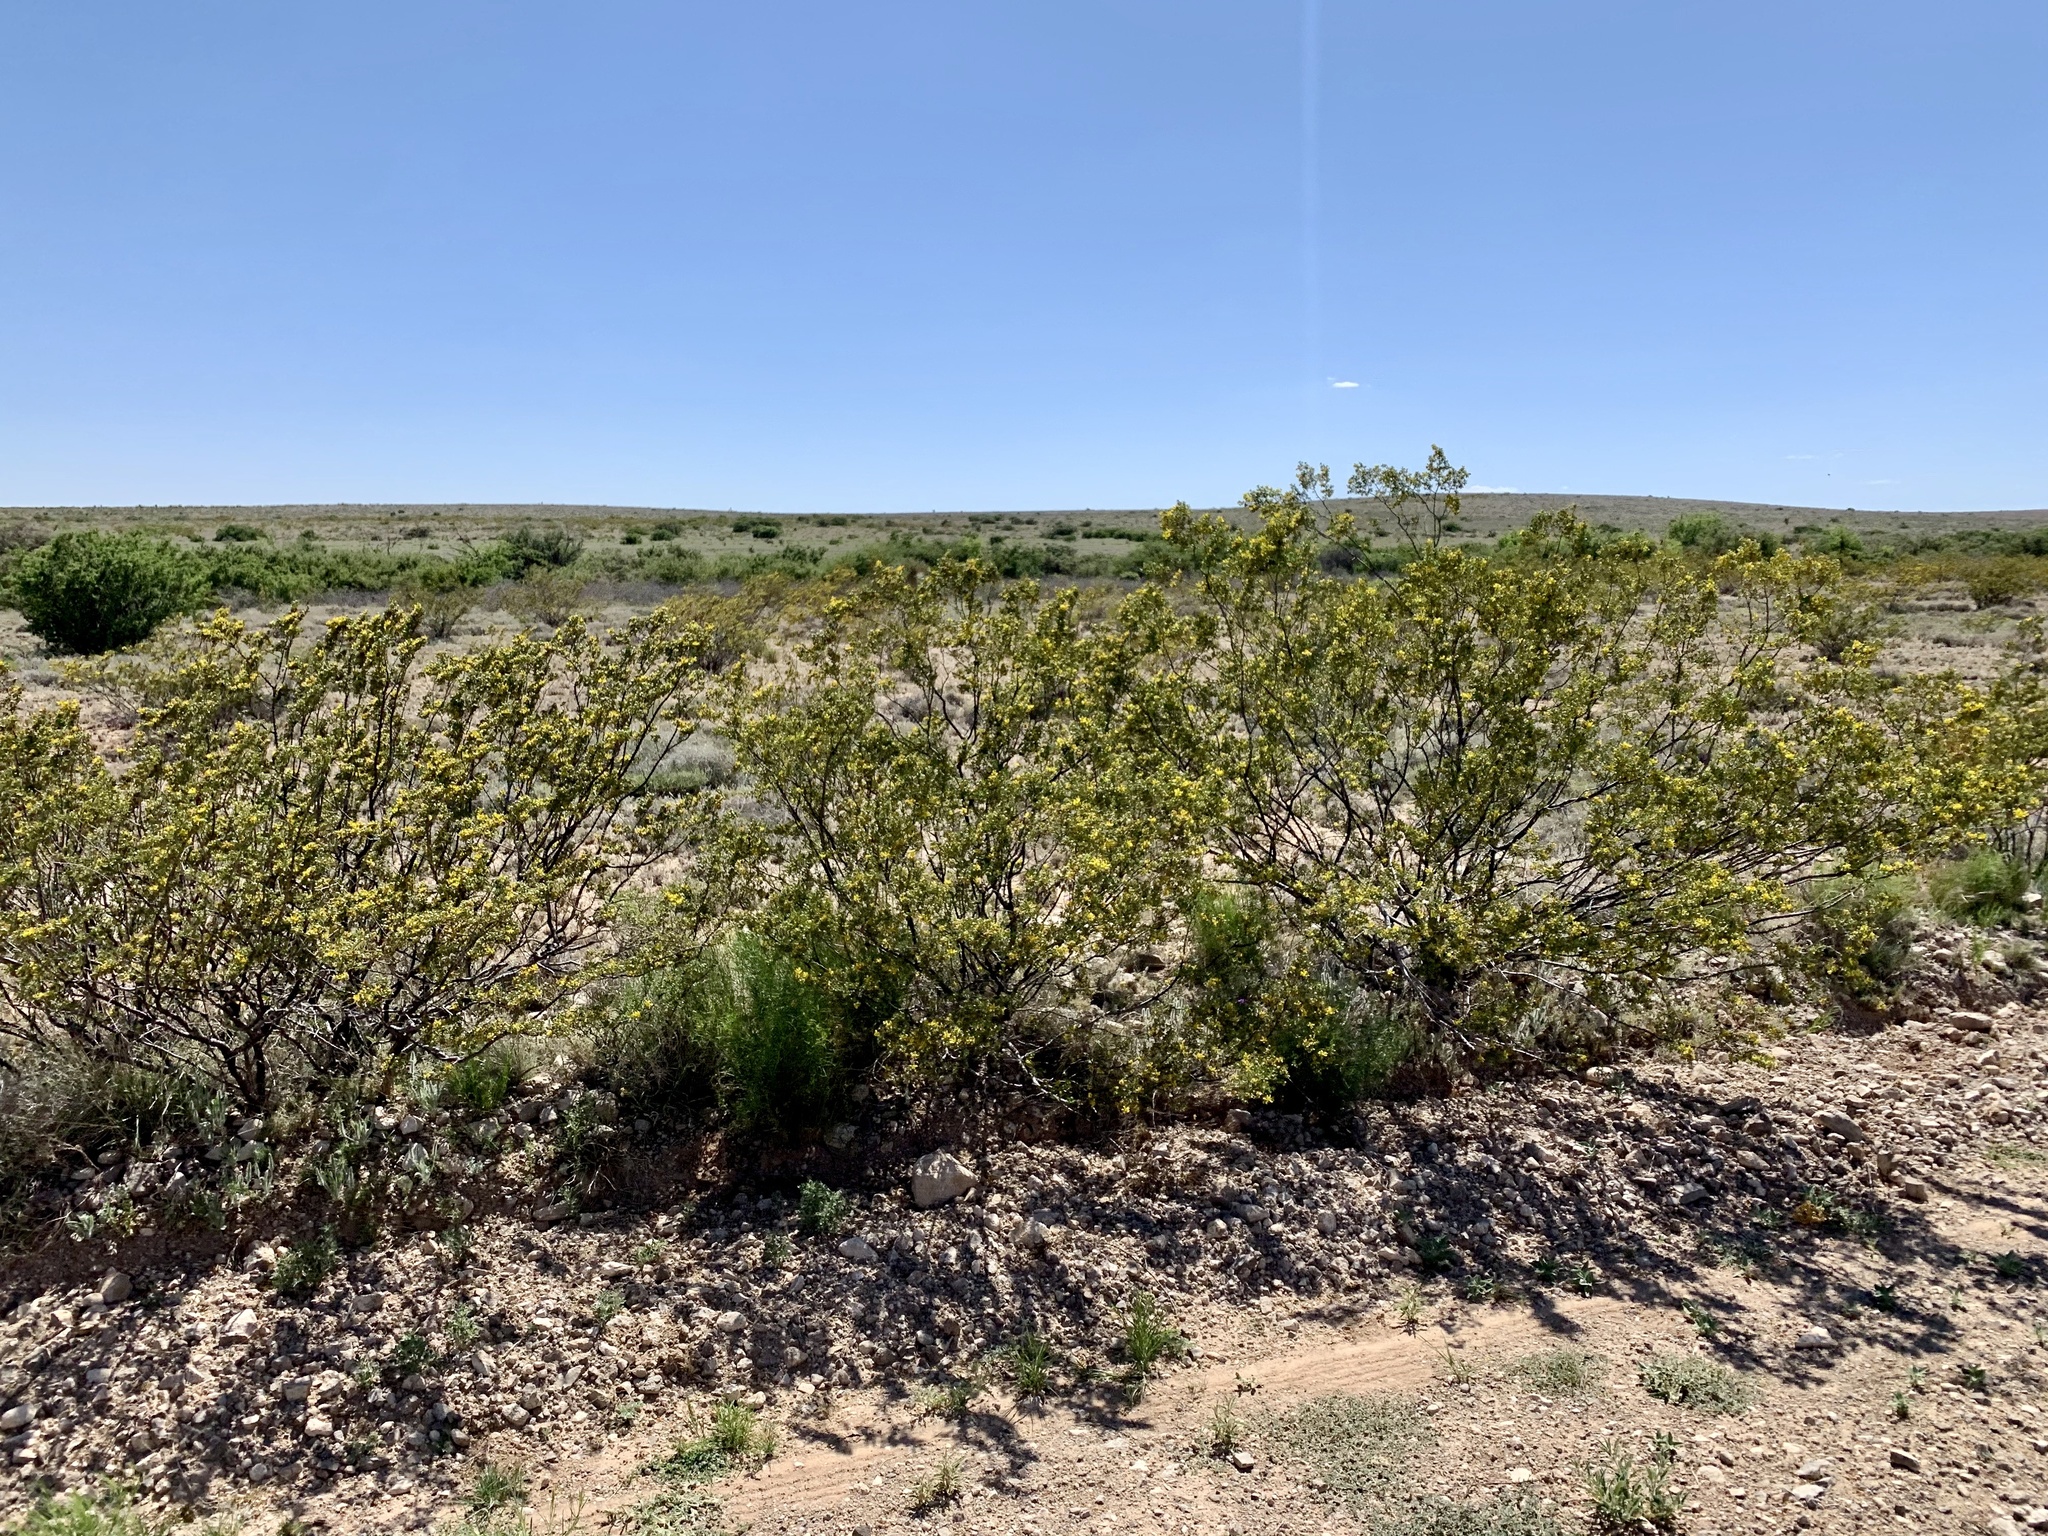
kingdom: Plantae
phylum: Tracheophyta
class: Magnoliopsida
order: Zygophyllales
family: Zygophyllaceae
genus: Larrea
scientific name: Larrea tridentata
